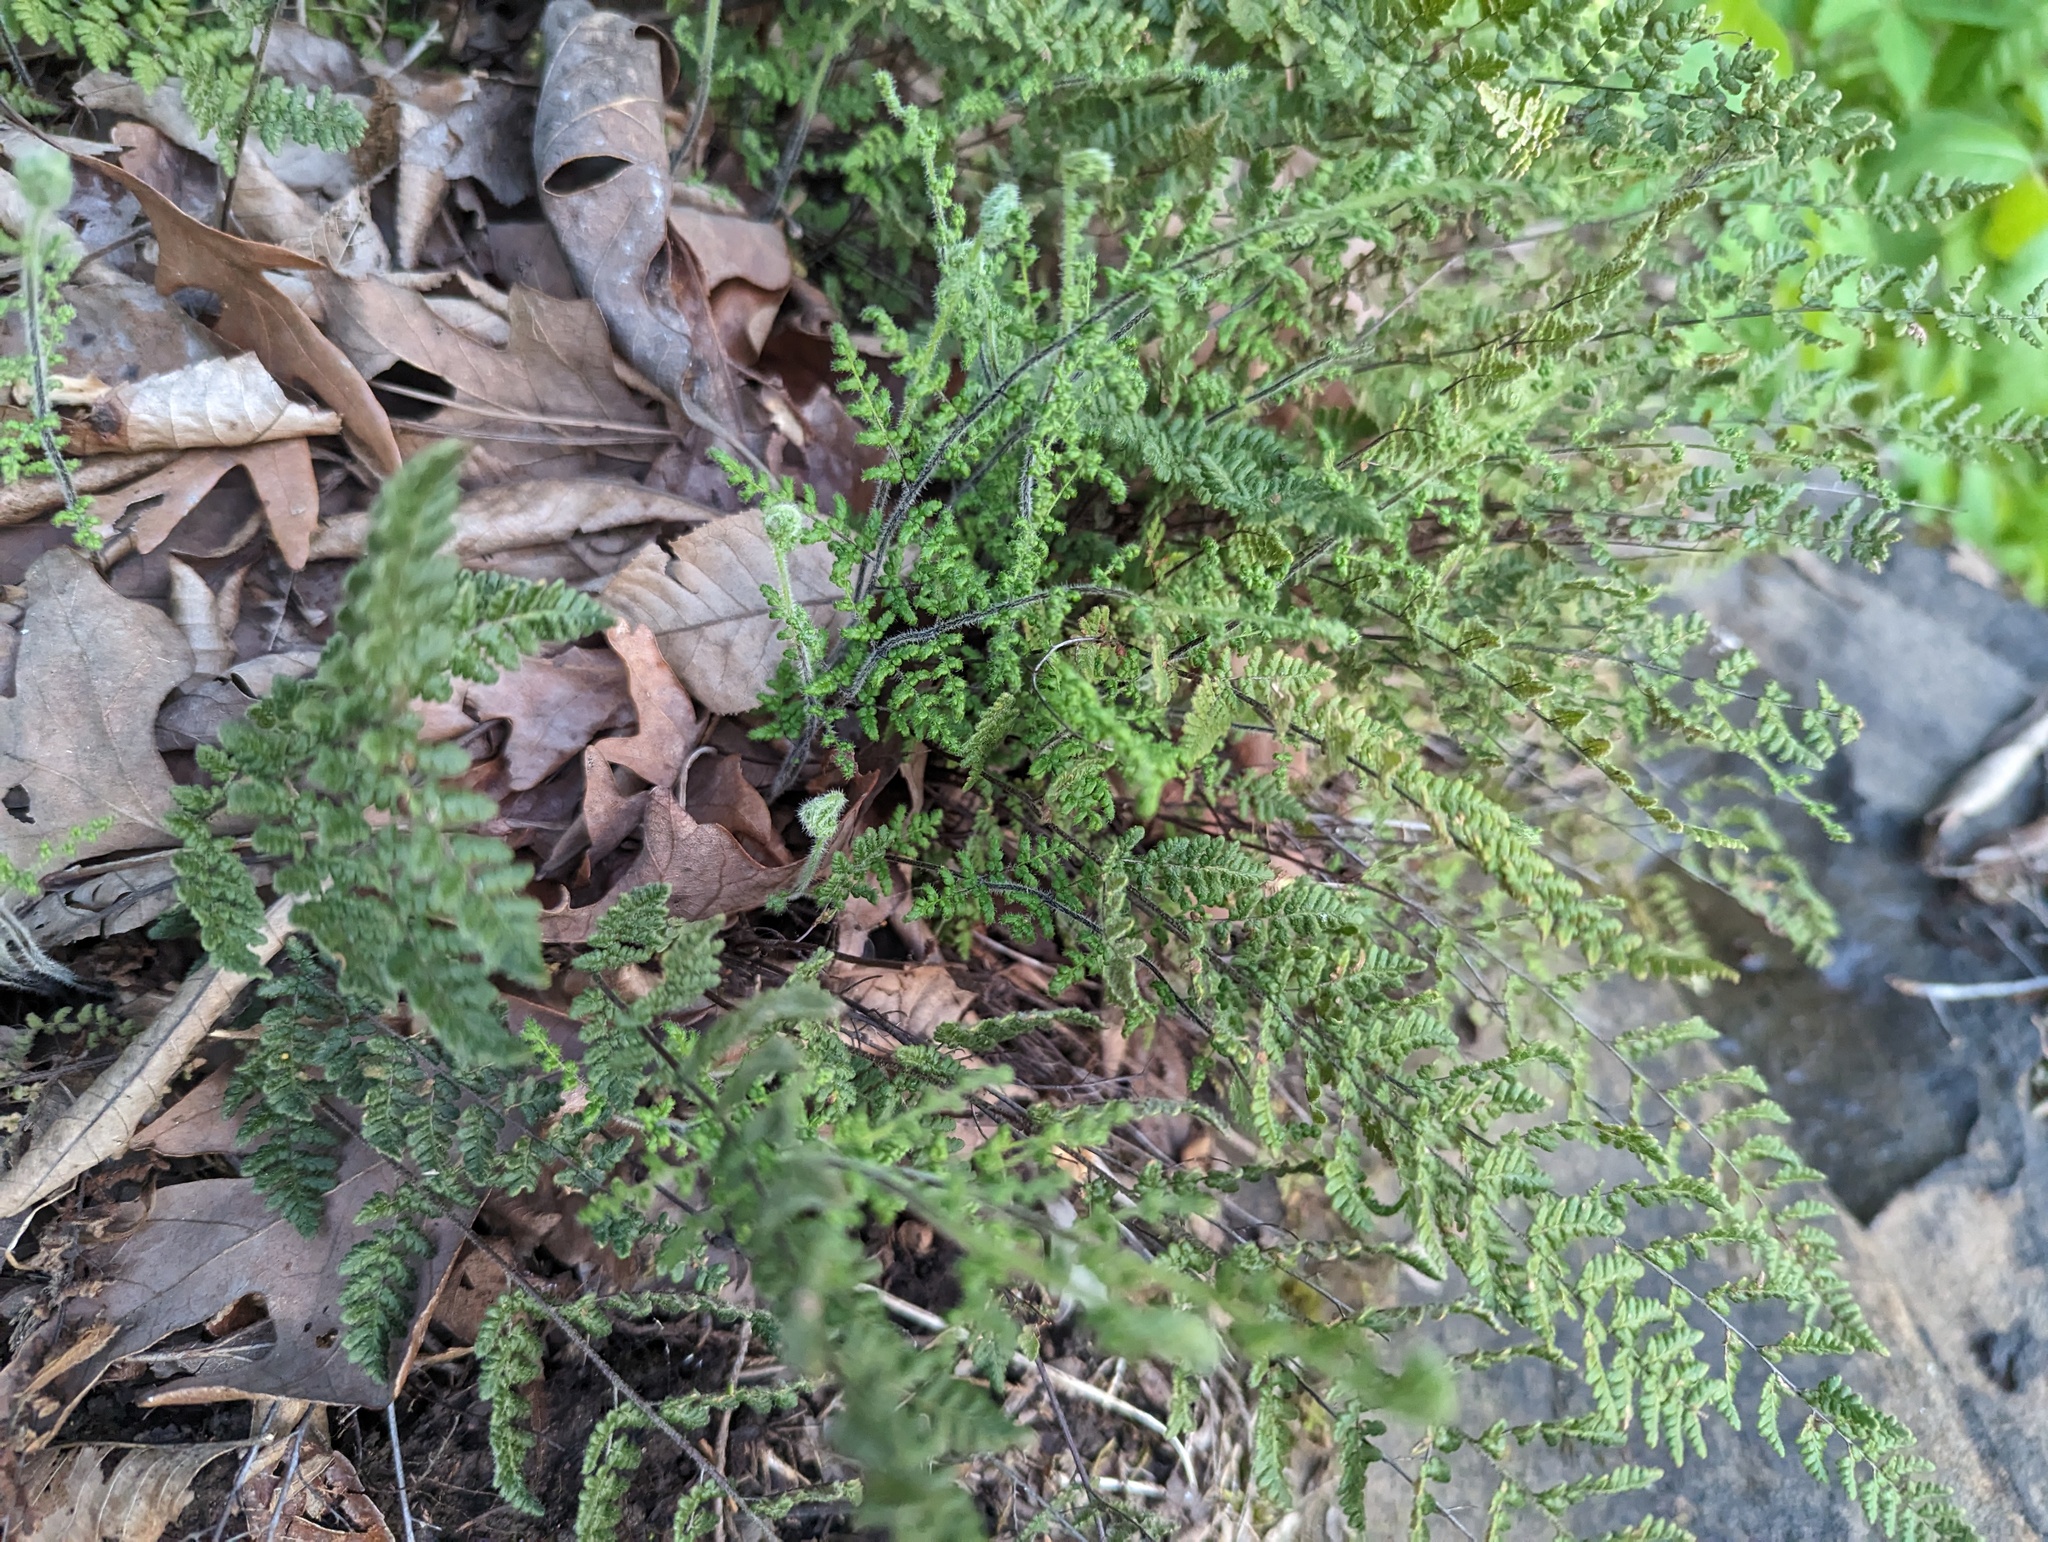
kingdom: Plantae
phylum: Tracheophyta
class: Polypodiopsida
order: Polypodiales
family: Pteridaceae
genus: Myriopteris
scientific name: Myriopteris lanosa
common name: Hairy lip fern
